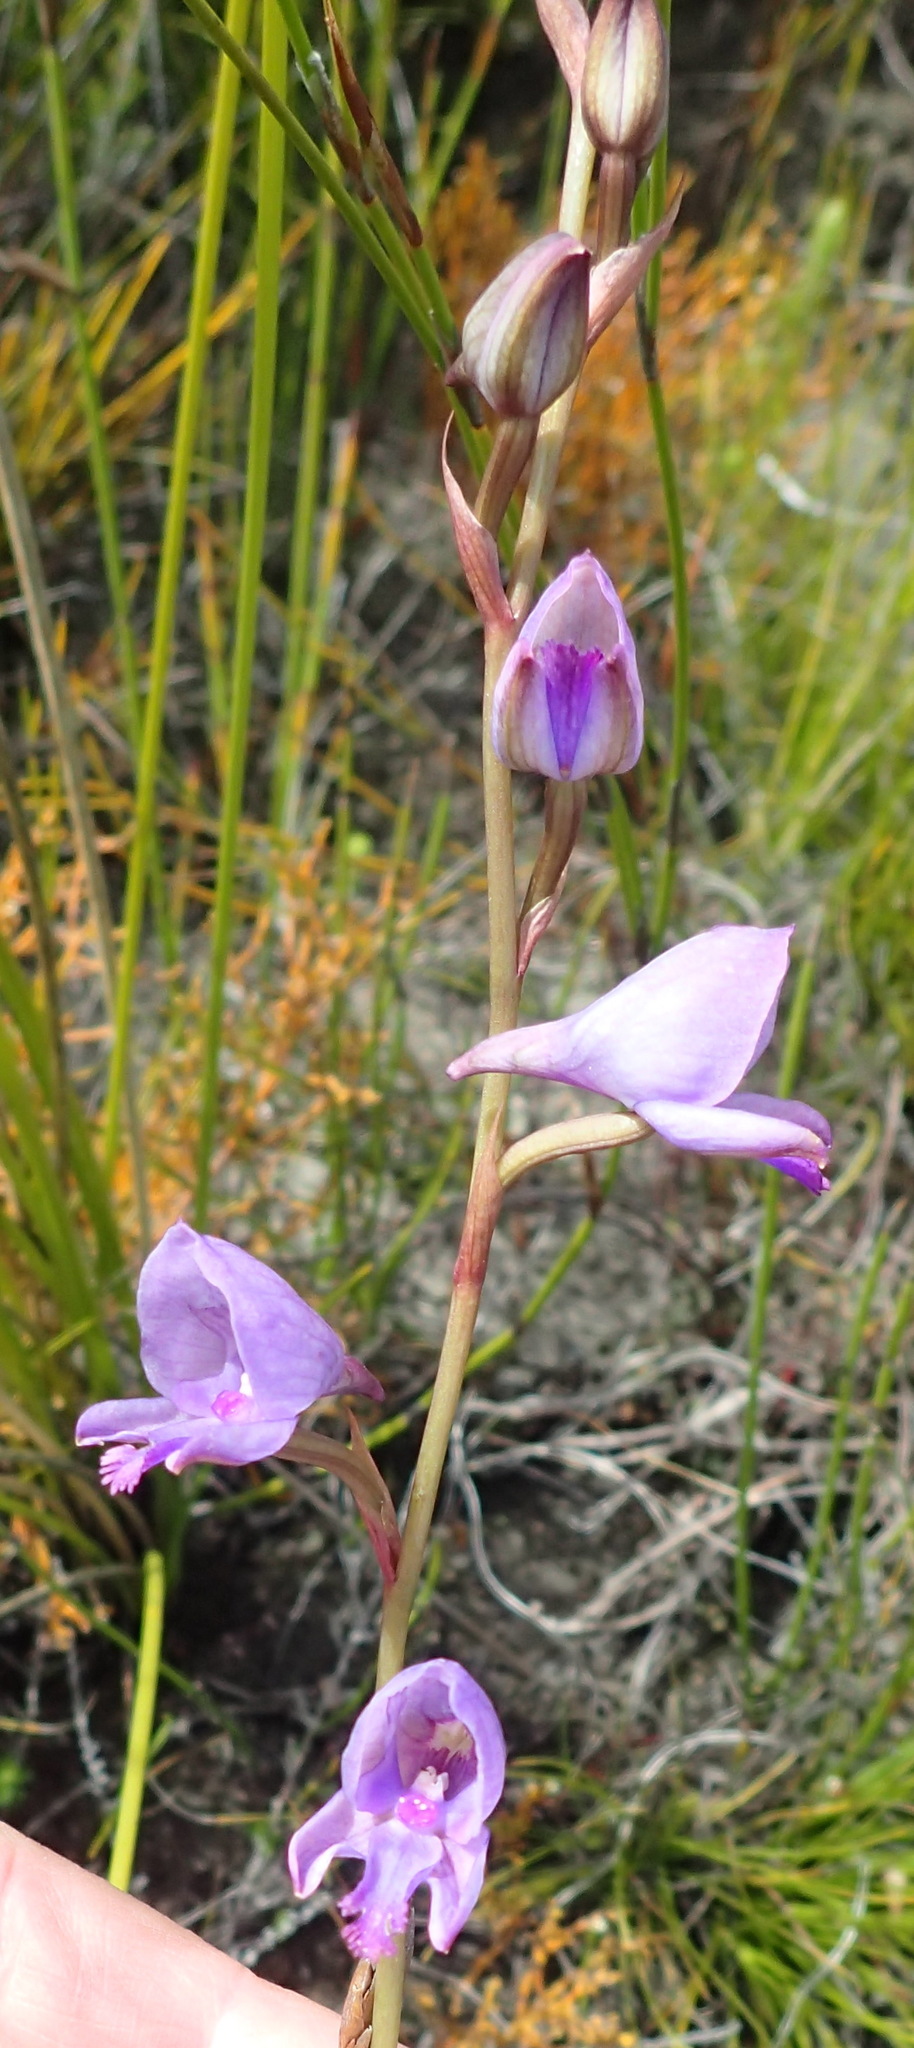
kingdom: Plantae
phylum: Tracheophyta
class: Liliopsida
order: Asparagales
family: Orchidaceae
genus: Disa
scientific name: Disa hians
